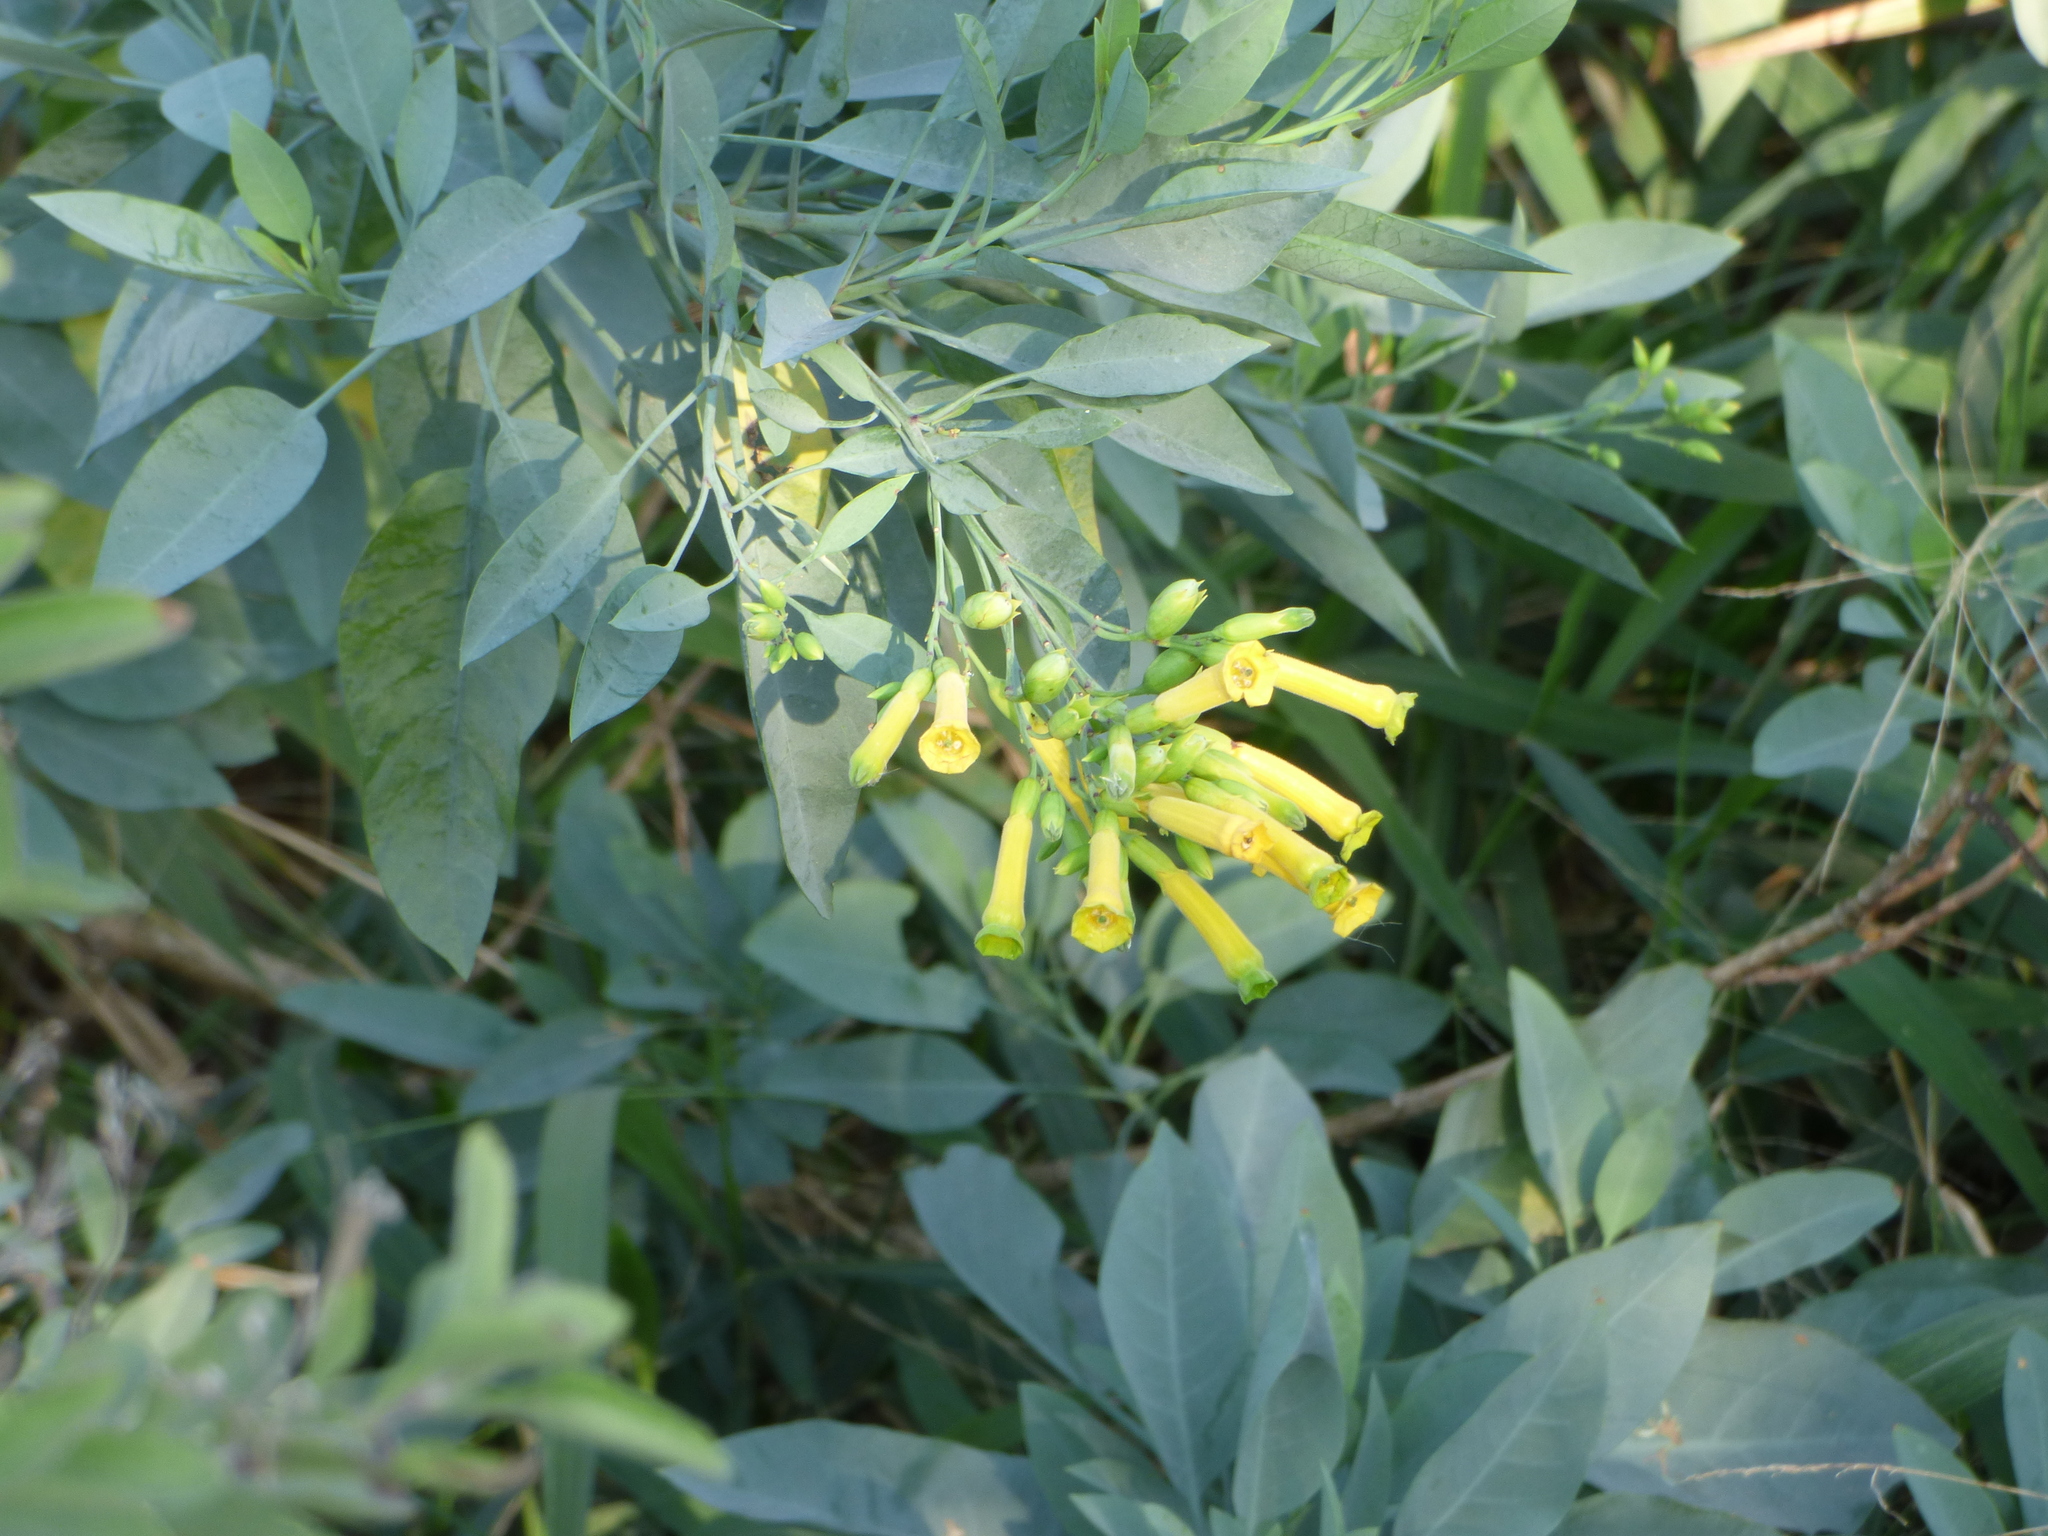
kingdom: Plantae
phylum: Tracheophyta
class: Magnoliopsida
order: Solanales
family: Solanaceae
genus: Nicotiana
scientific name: Nicotiana glauca
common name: Tree tobacco
